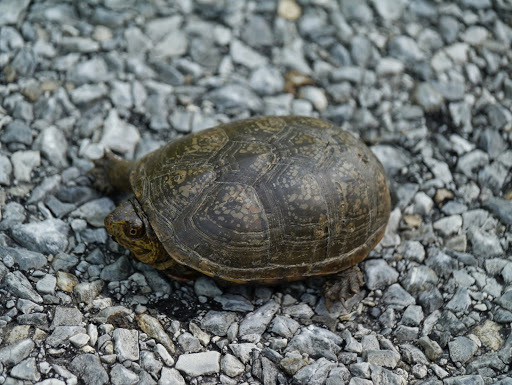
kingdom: Animalia
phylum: Chordata
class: Testudines
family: Kinosternidae
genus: Kinosternon
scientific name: Kinosternon subrubrum
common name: Eastern mud turtle
